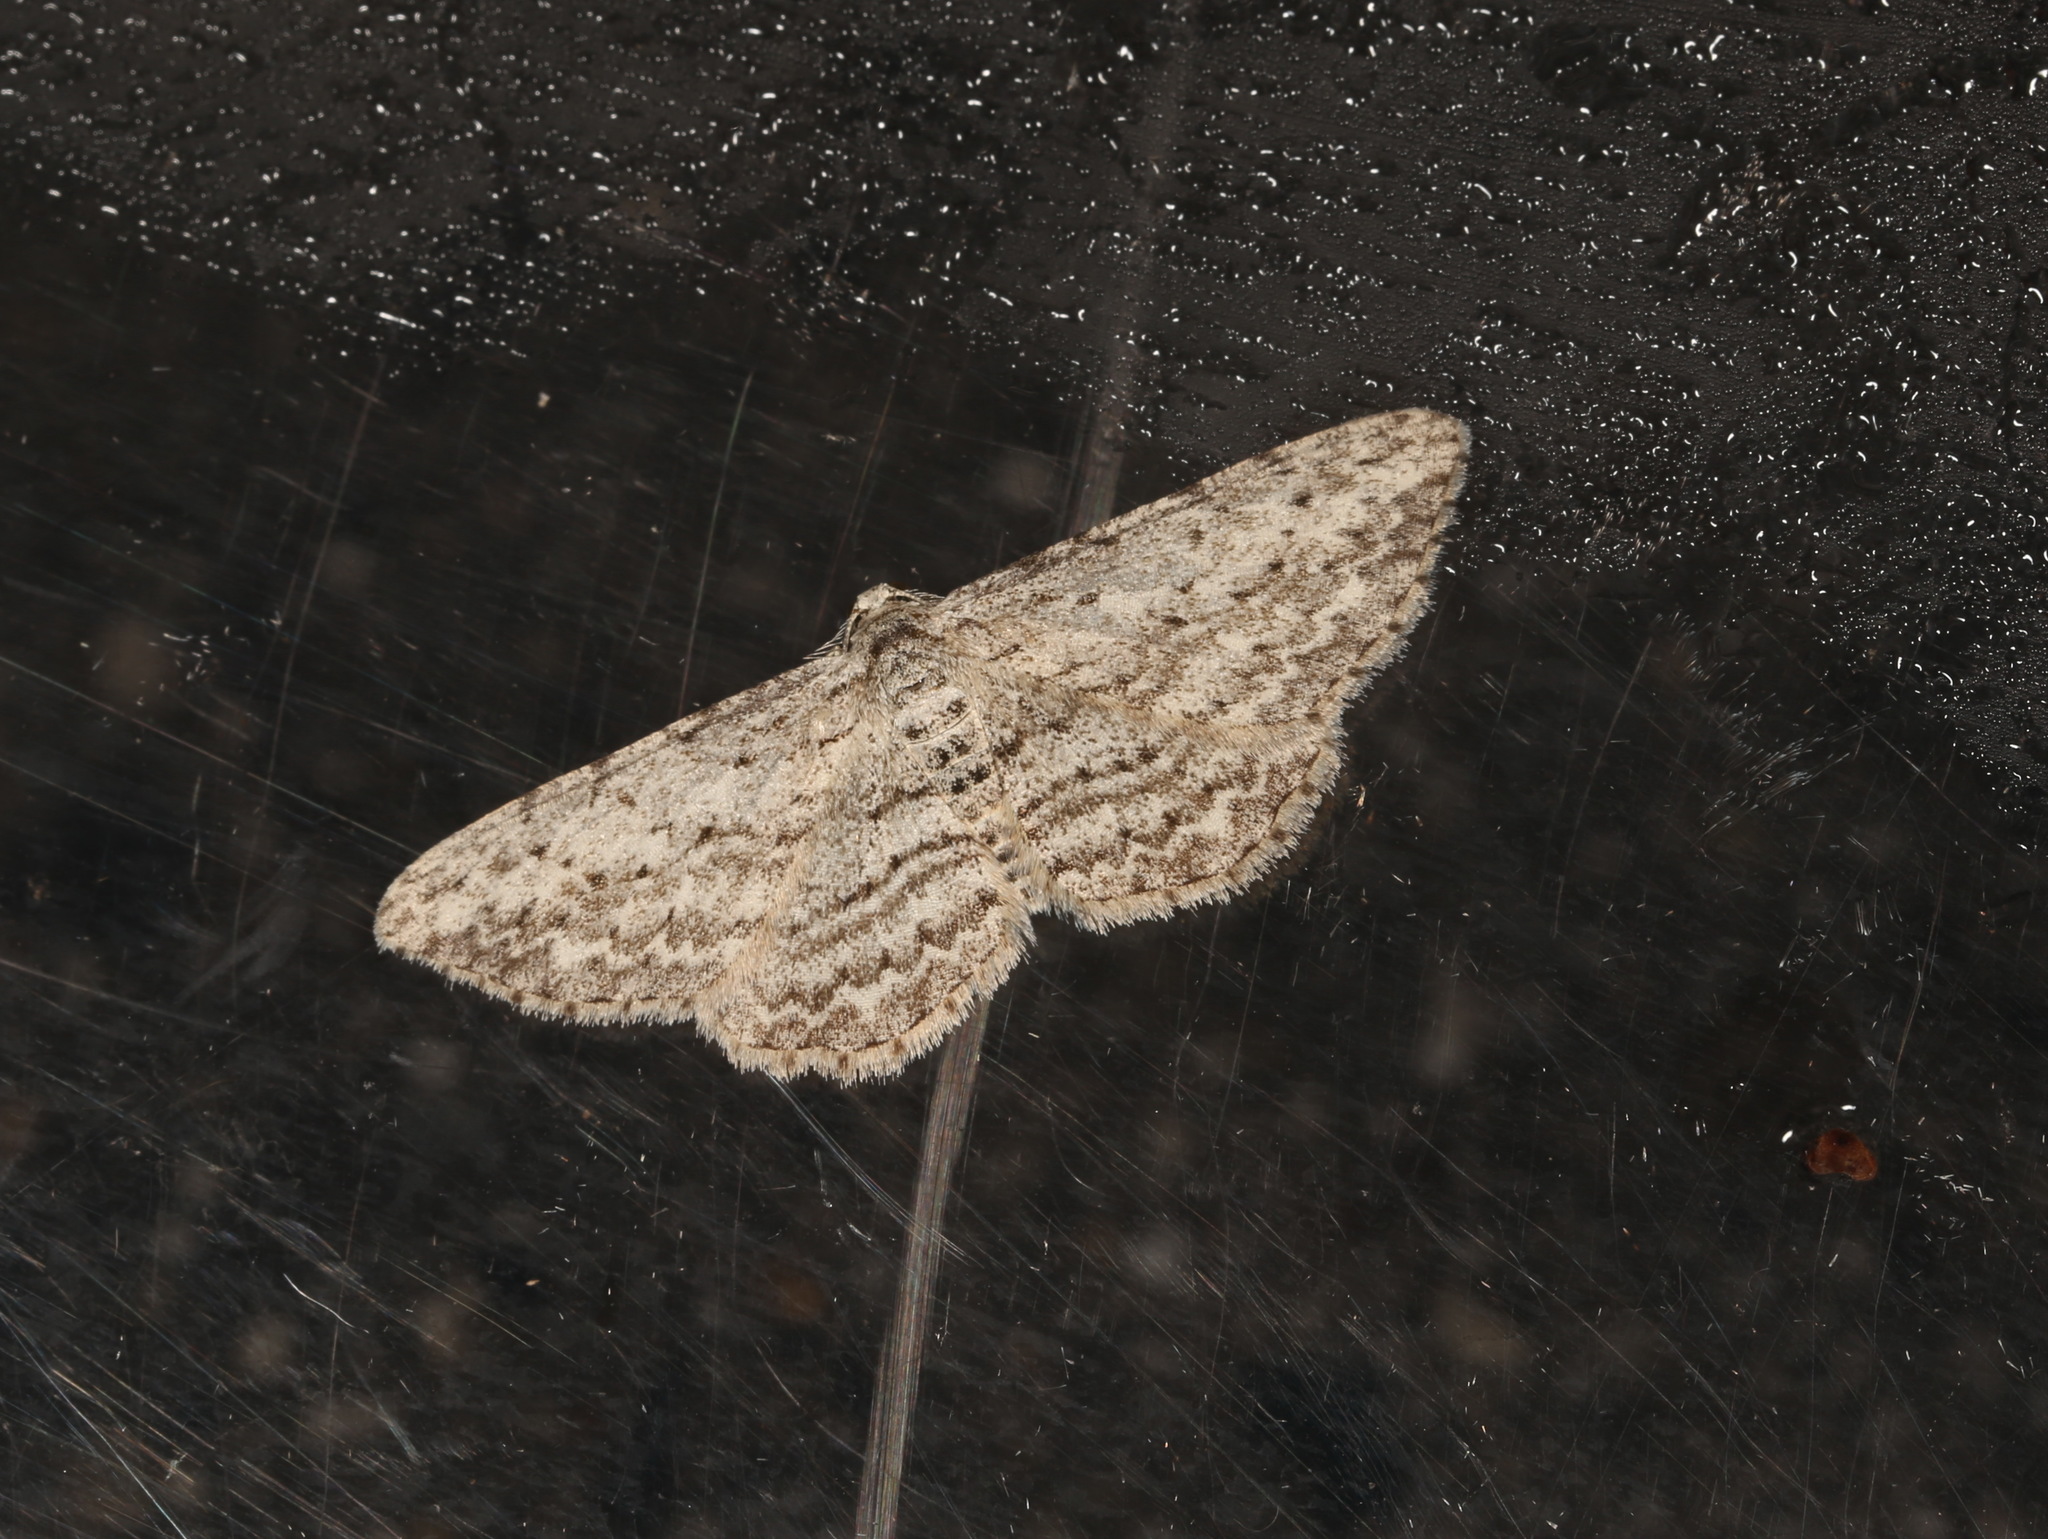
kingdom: Animalia
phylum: Arthropoda
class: Insecta
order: Lepidoptera
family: Geometridae
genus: Phelotis
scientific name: Phelotis cognata
